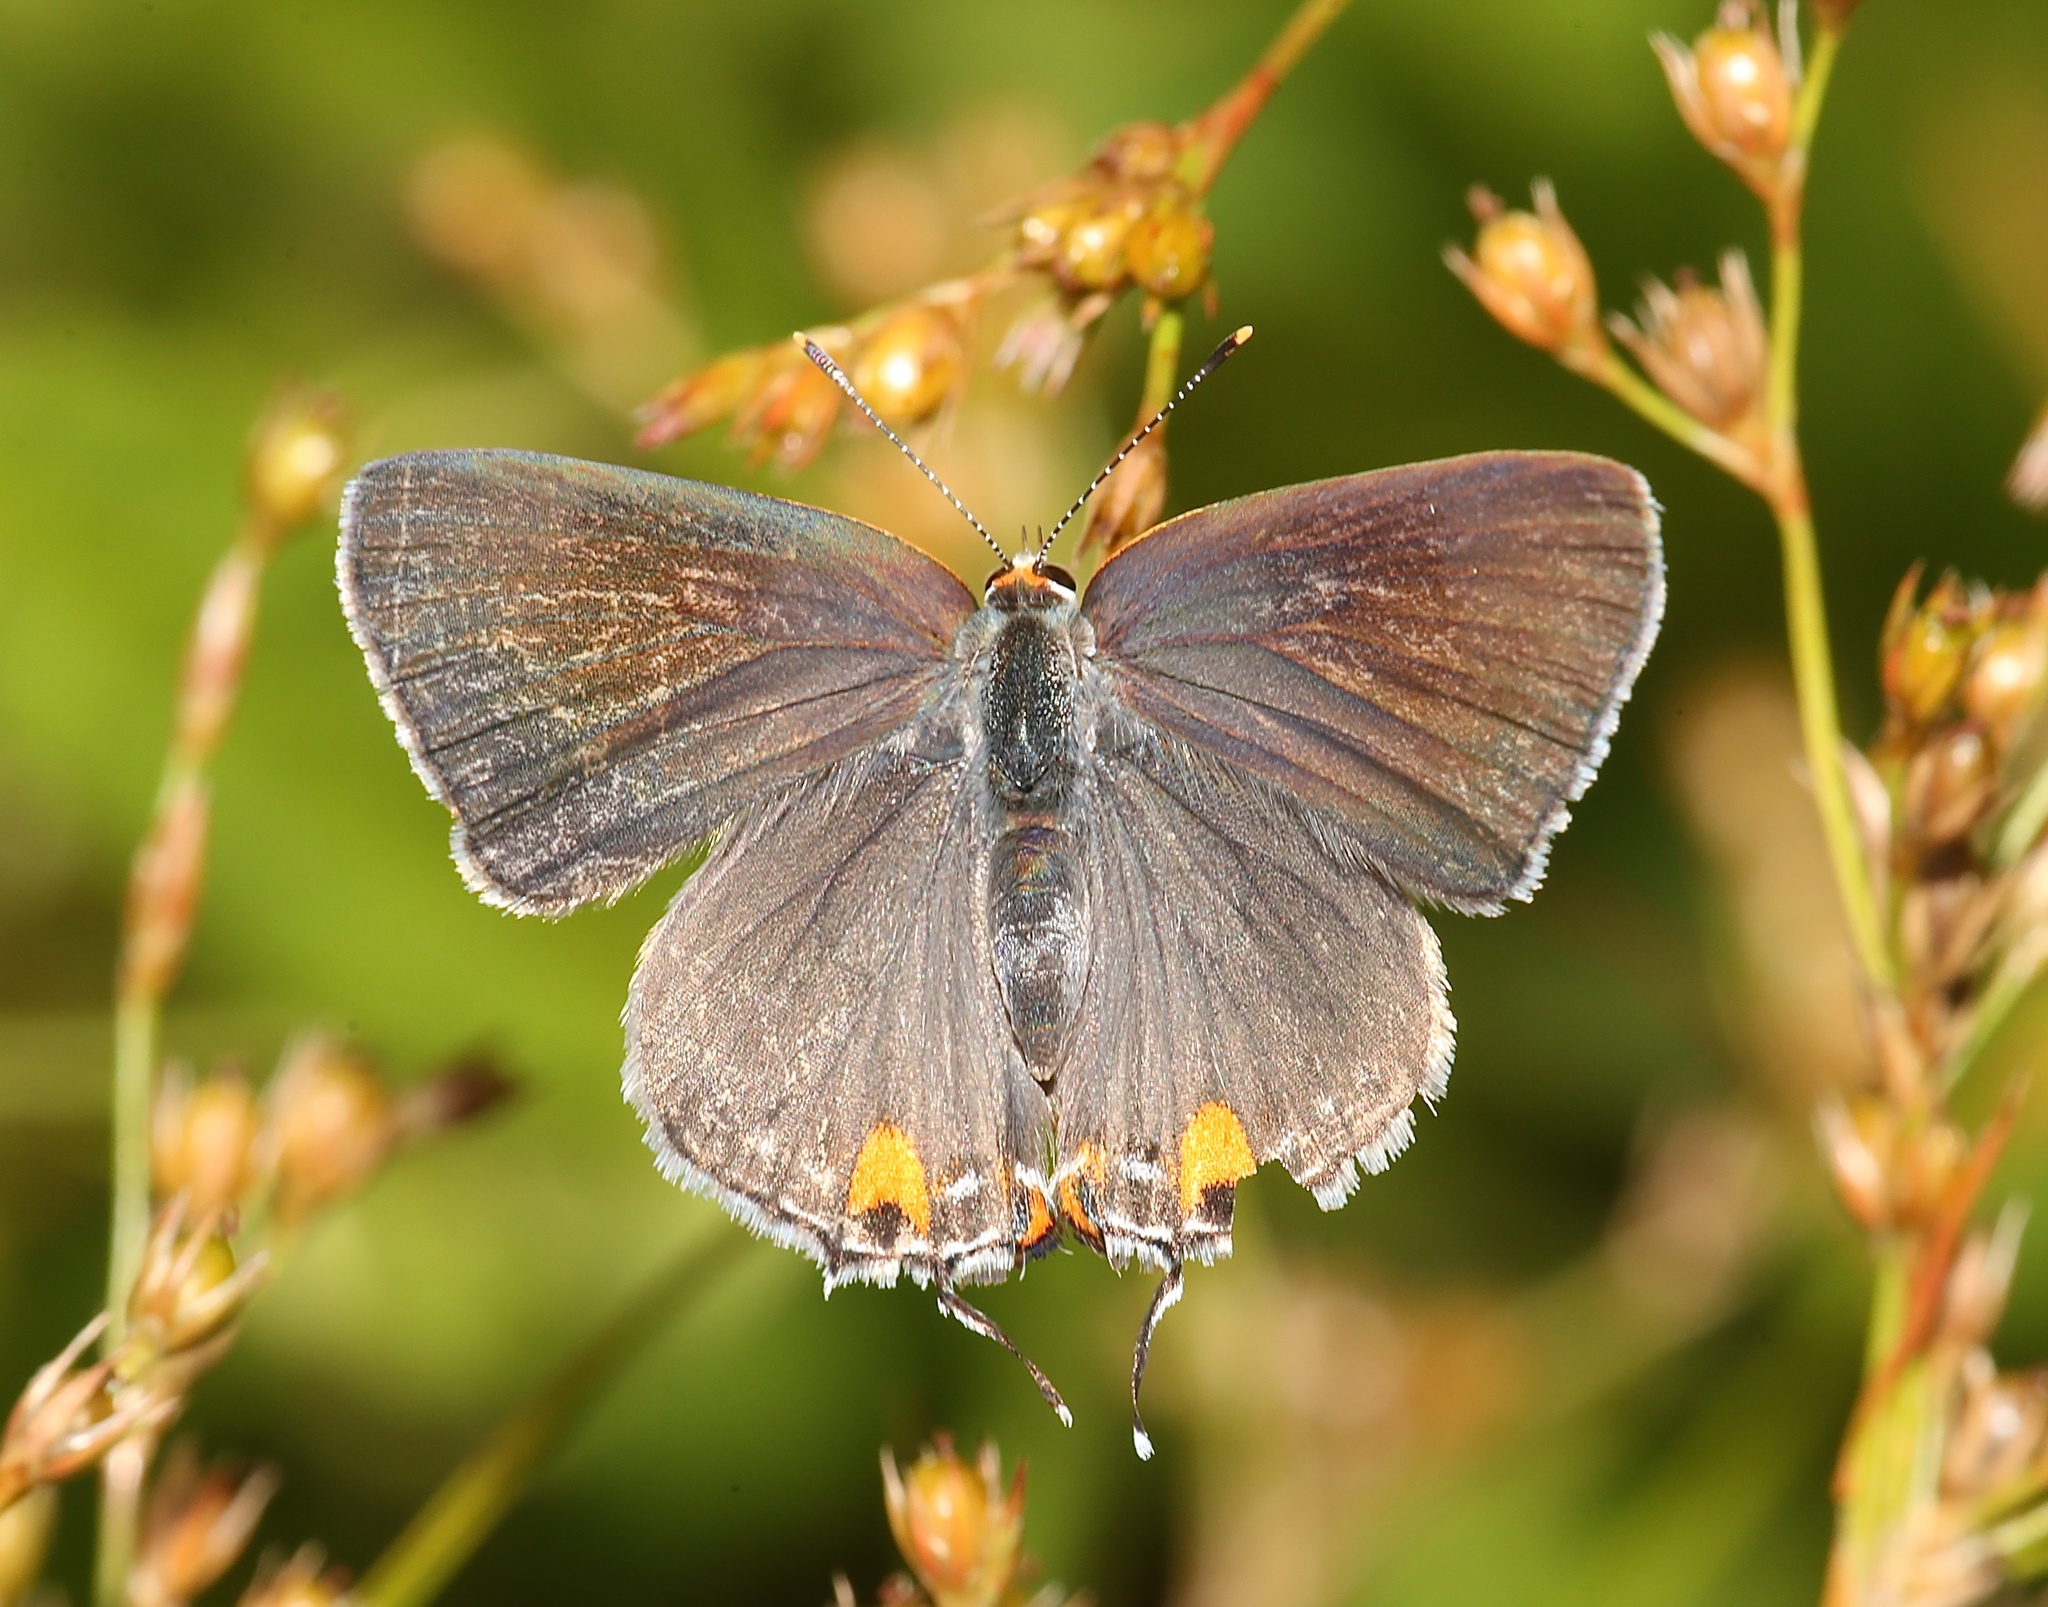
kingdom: Animalia
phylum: Arthropoda
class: Insecta
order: Lepidoptera
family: Lycaenidae
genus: Strymon
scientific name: Strymon melinus
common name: Gray hairstreak
